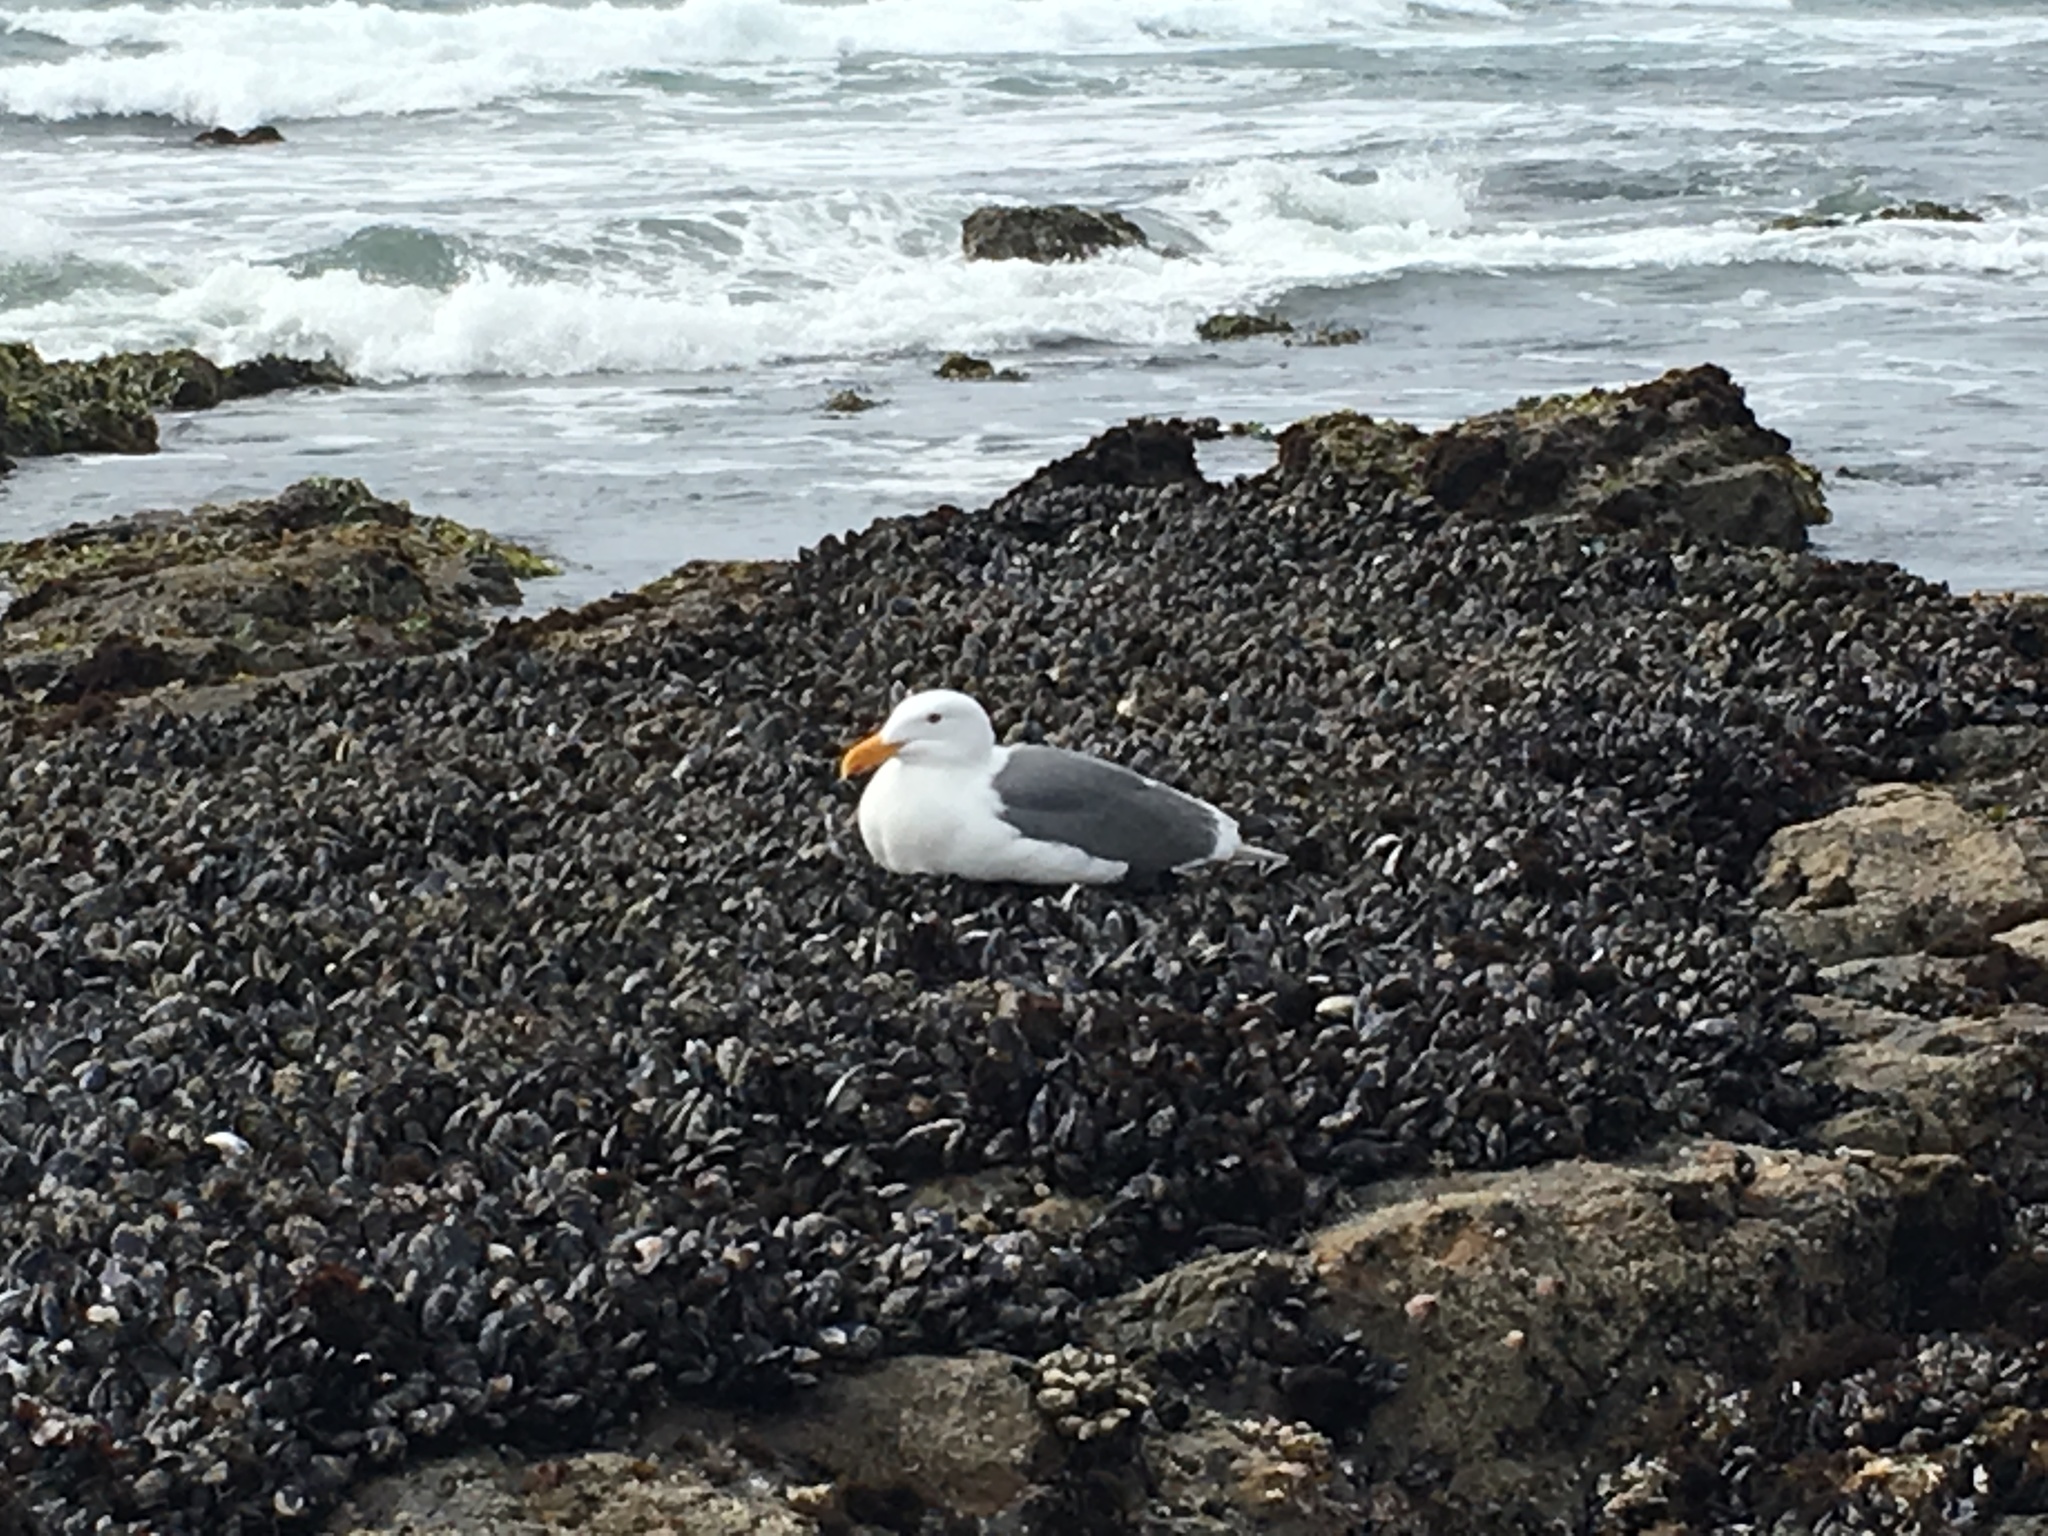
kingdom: Animalia
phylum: Chordata
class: Aves
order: Charadriiformes
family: Laridae
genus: Larus
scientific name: Larus occidentalis
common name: Western gull
